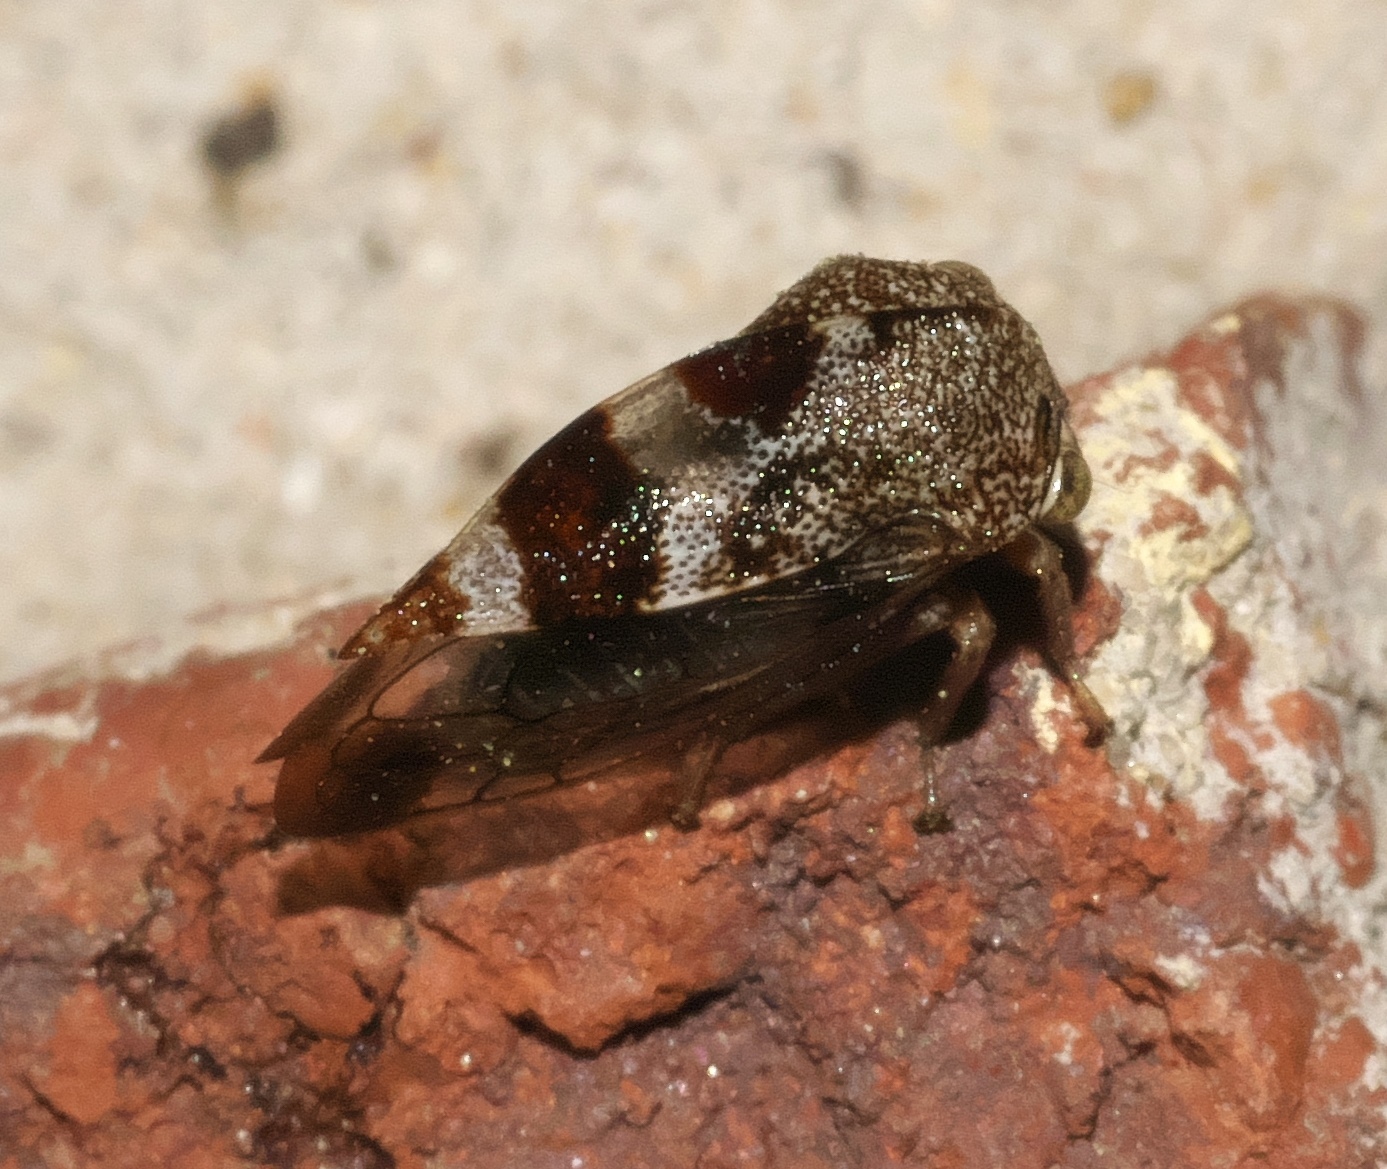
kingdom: Animalia
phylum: Arthropoda
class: Insecta
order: Hemiptera
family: Membracidae
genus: Cyrtolobus
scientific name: Cyrtolobus tuberosa
